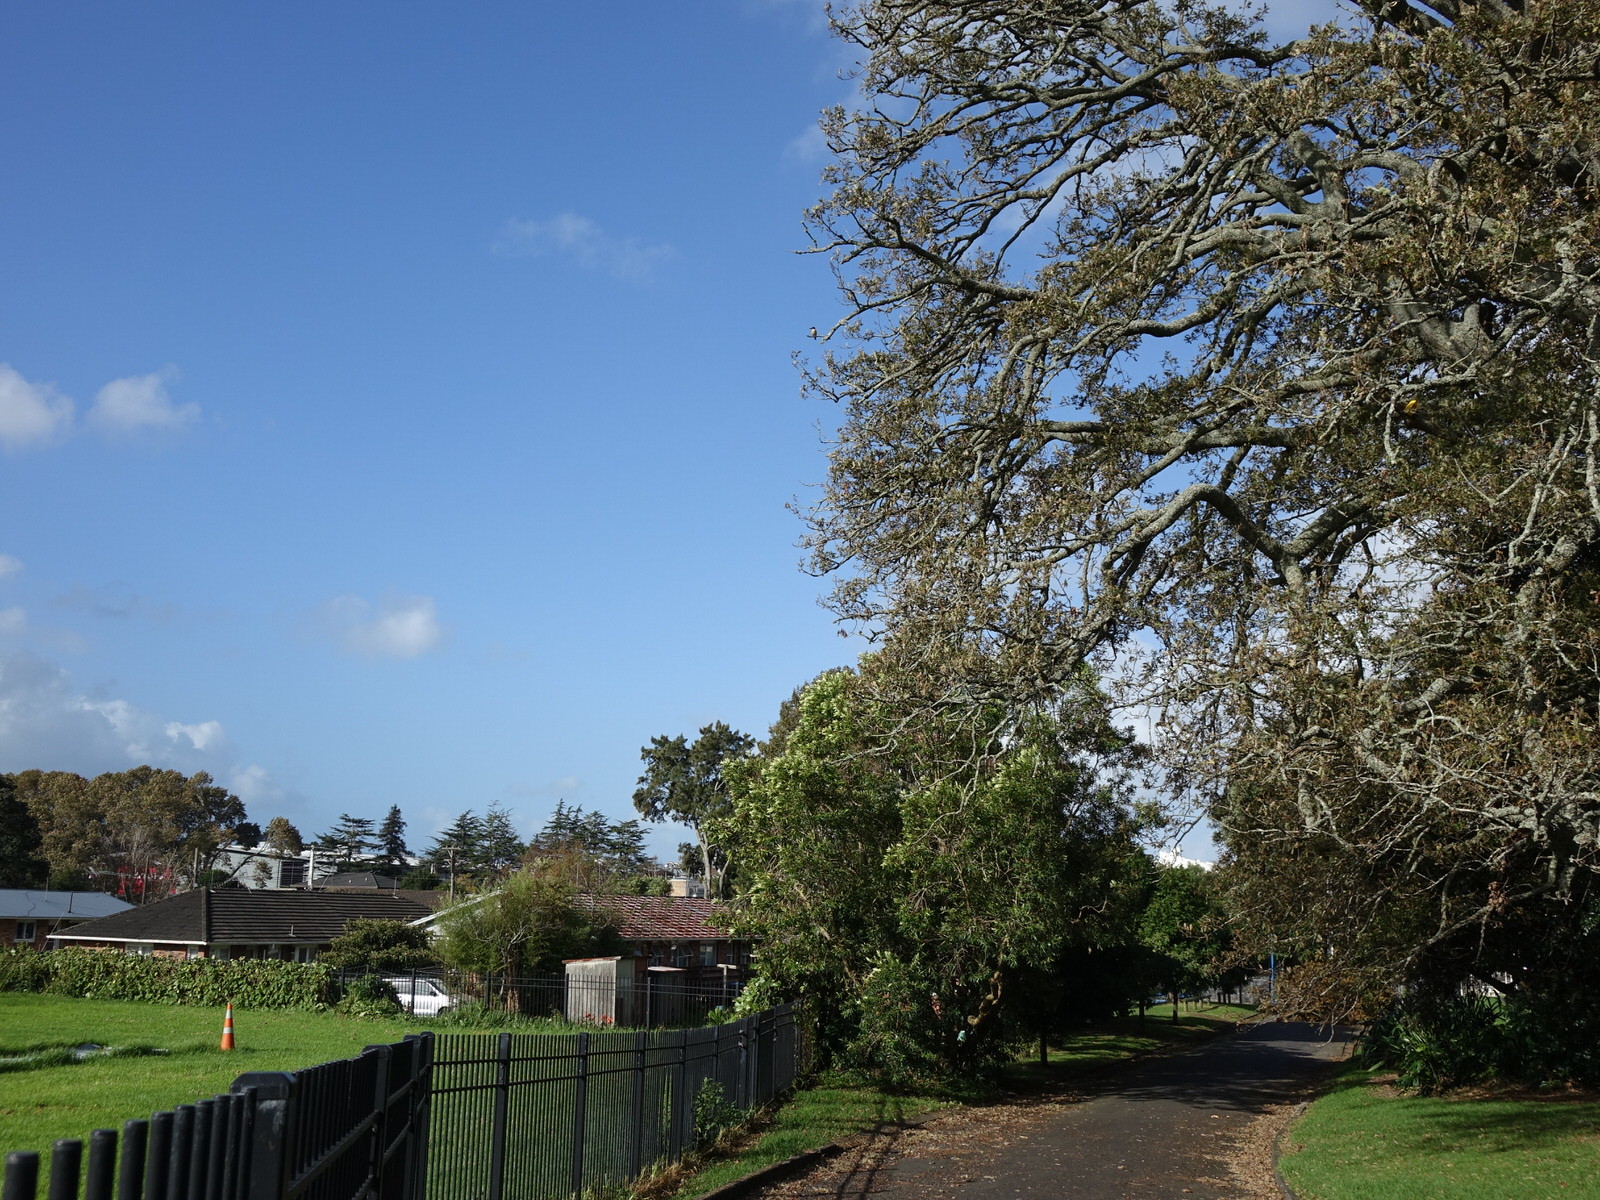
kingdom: Animalia
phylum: Chordata
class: Aves
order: Coraciiformes
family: Alcedinidae
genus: Todiramphus
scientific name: Todiramphus sanctus
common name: Sacred kingfisher
